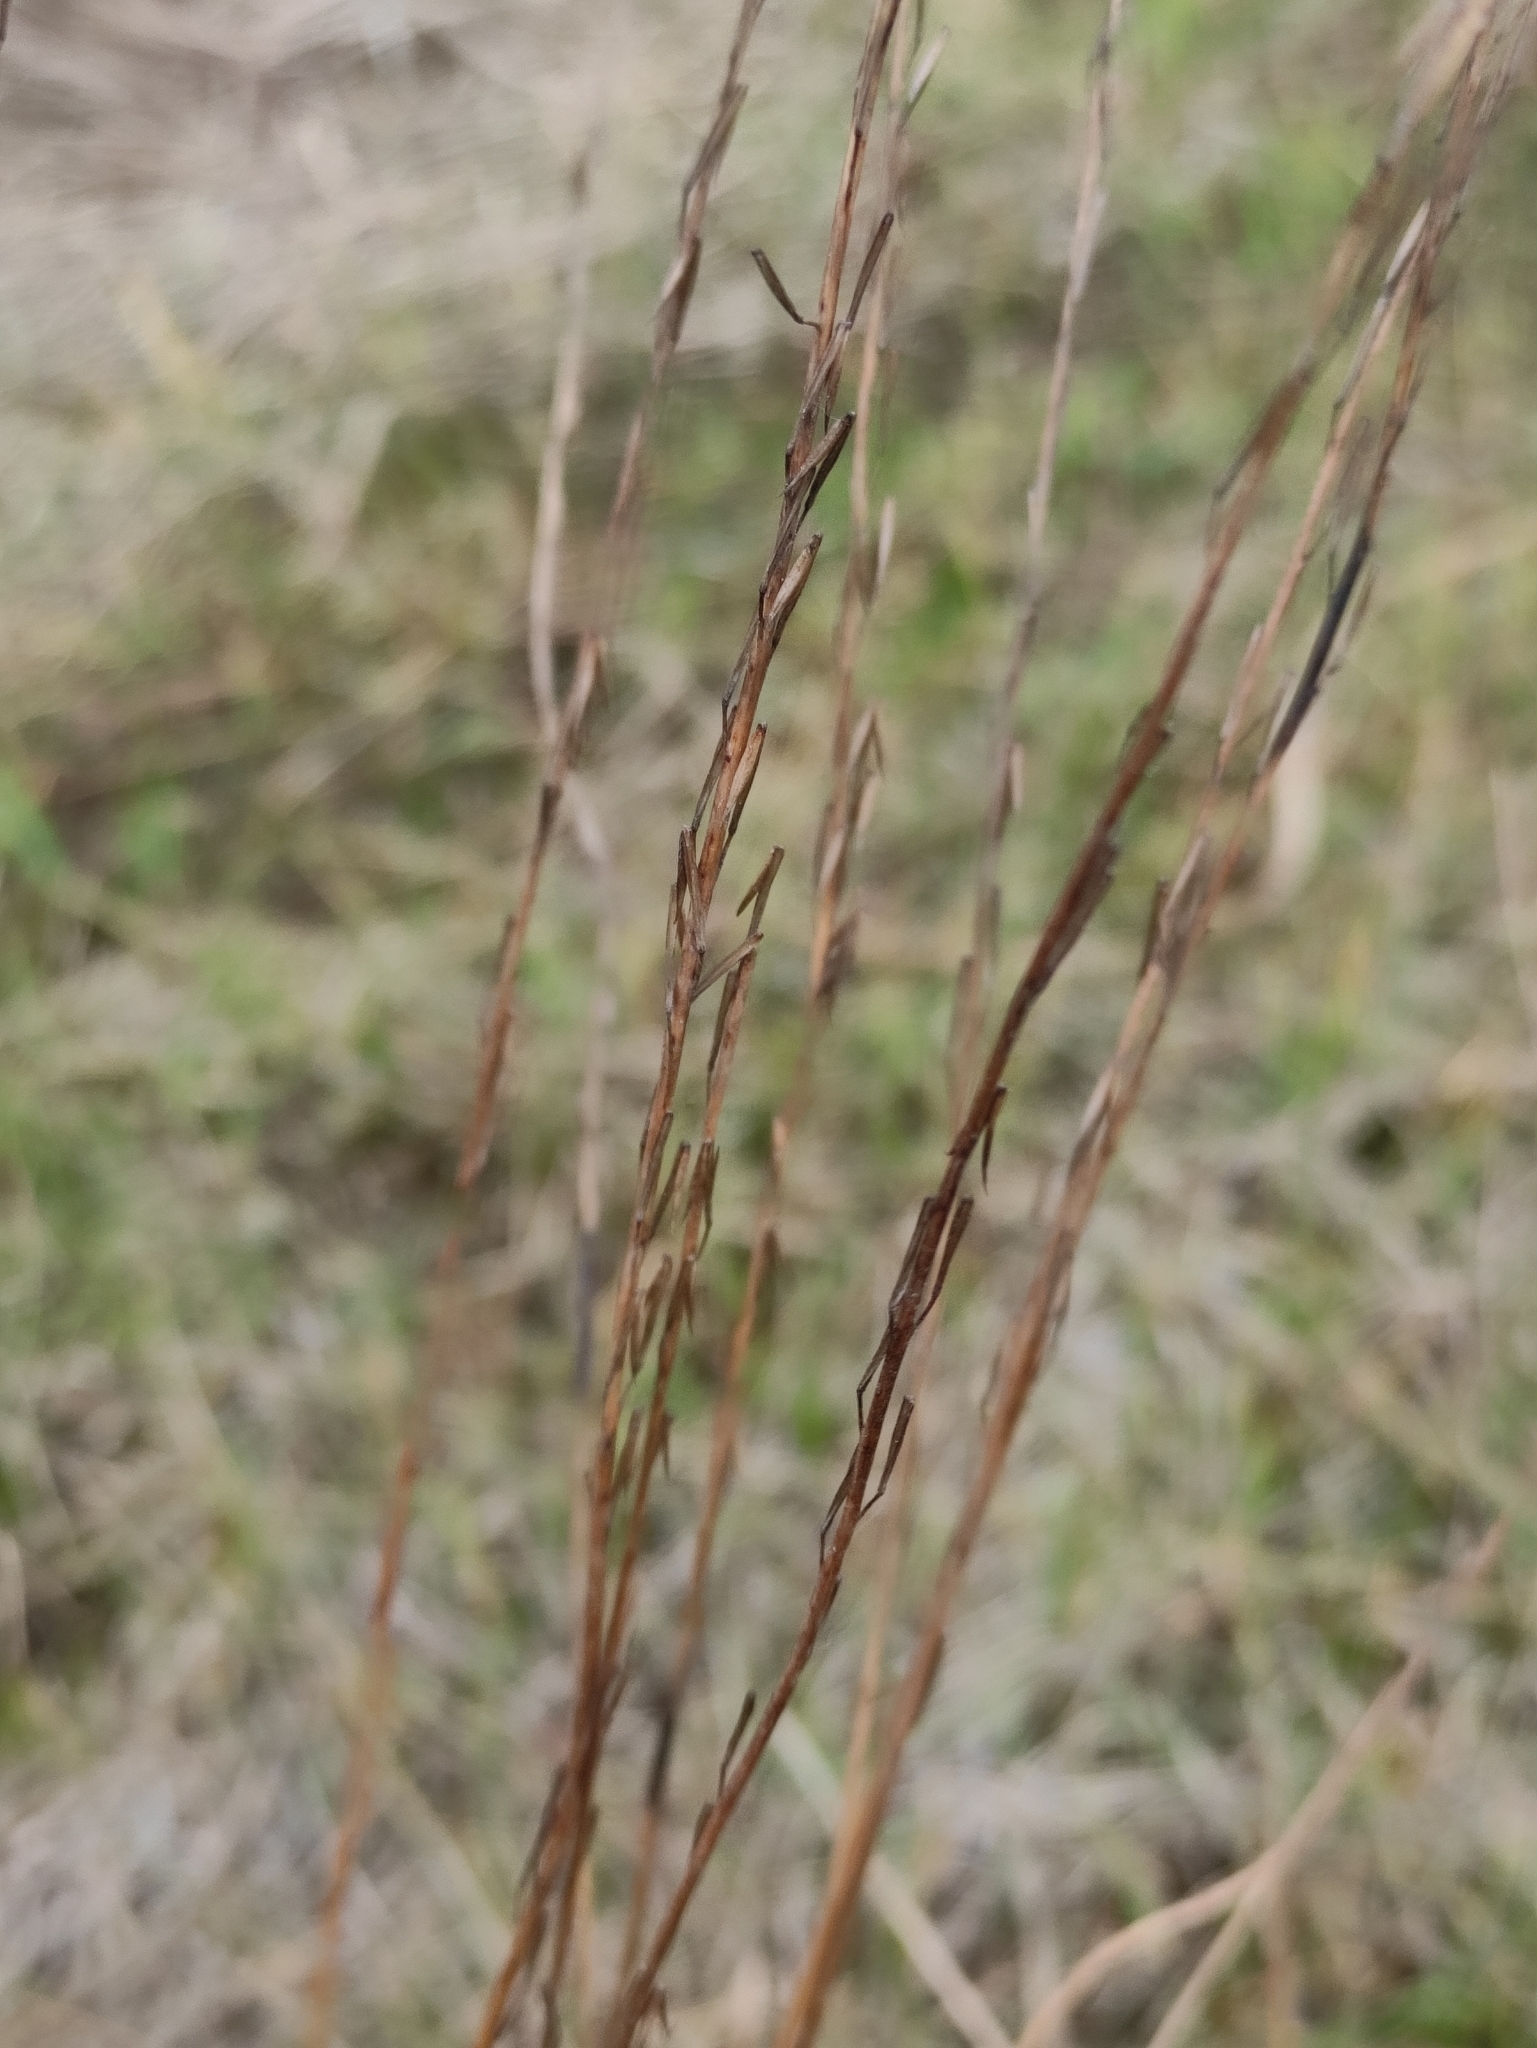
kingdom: Plantae
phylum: Tracheophyta
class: Liliopsida
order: Alismatales
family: Juncaginaceae
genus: Triglochin
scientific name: Triglochin palustris
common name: Marsh arrowgrass
